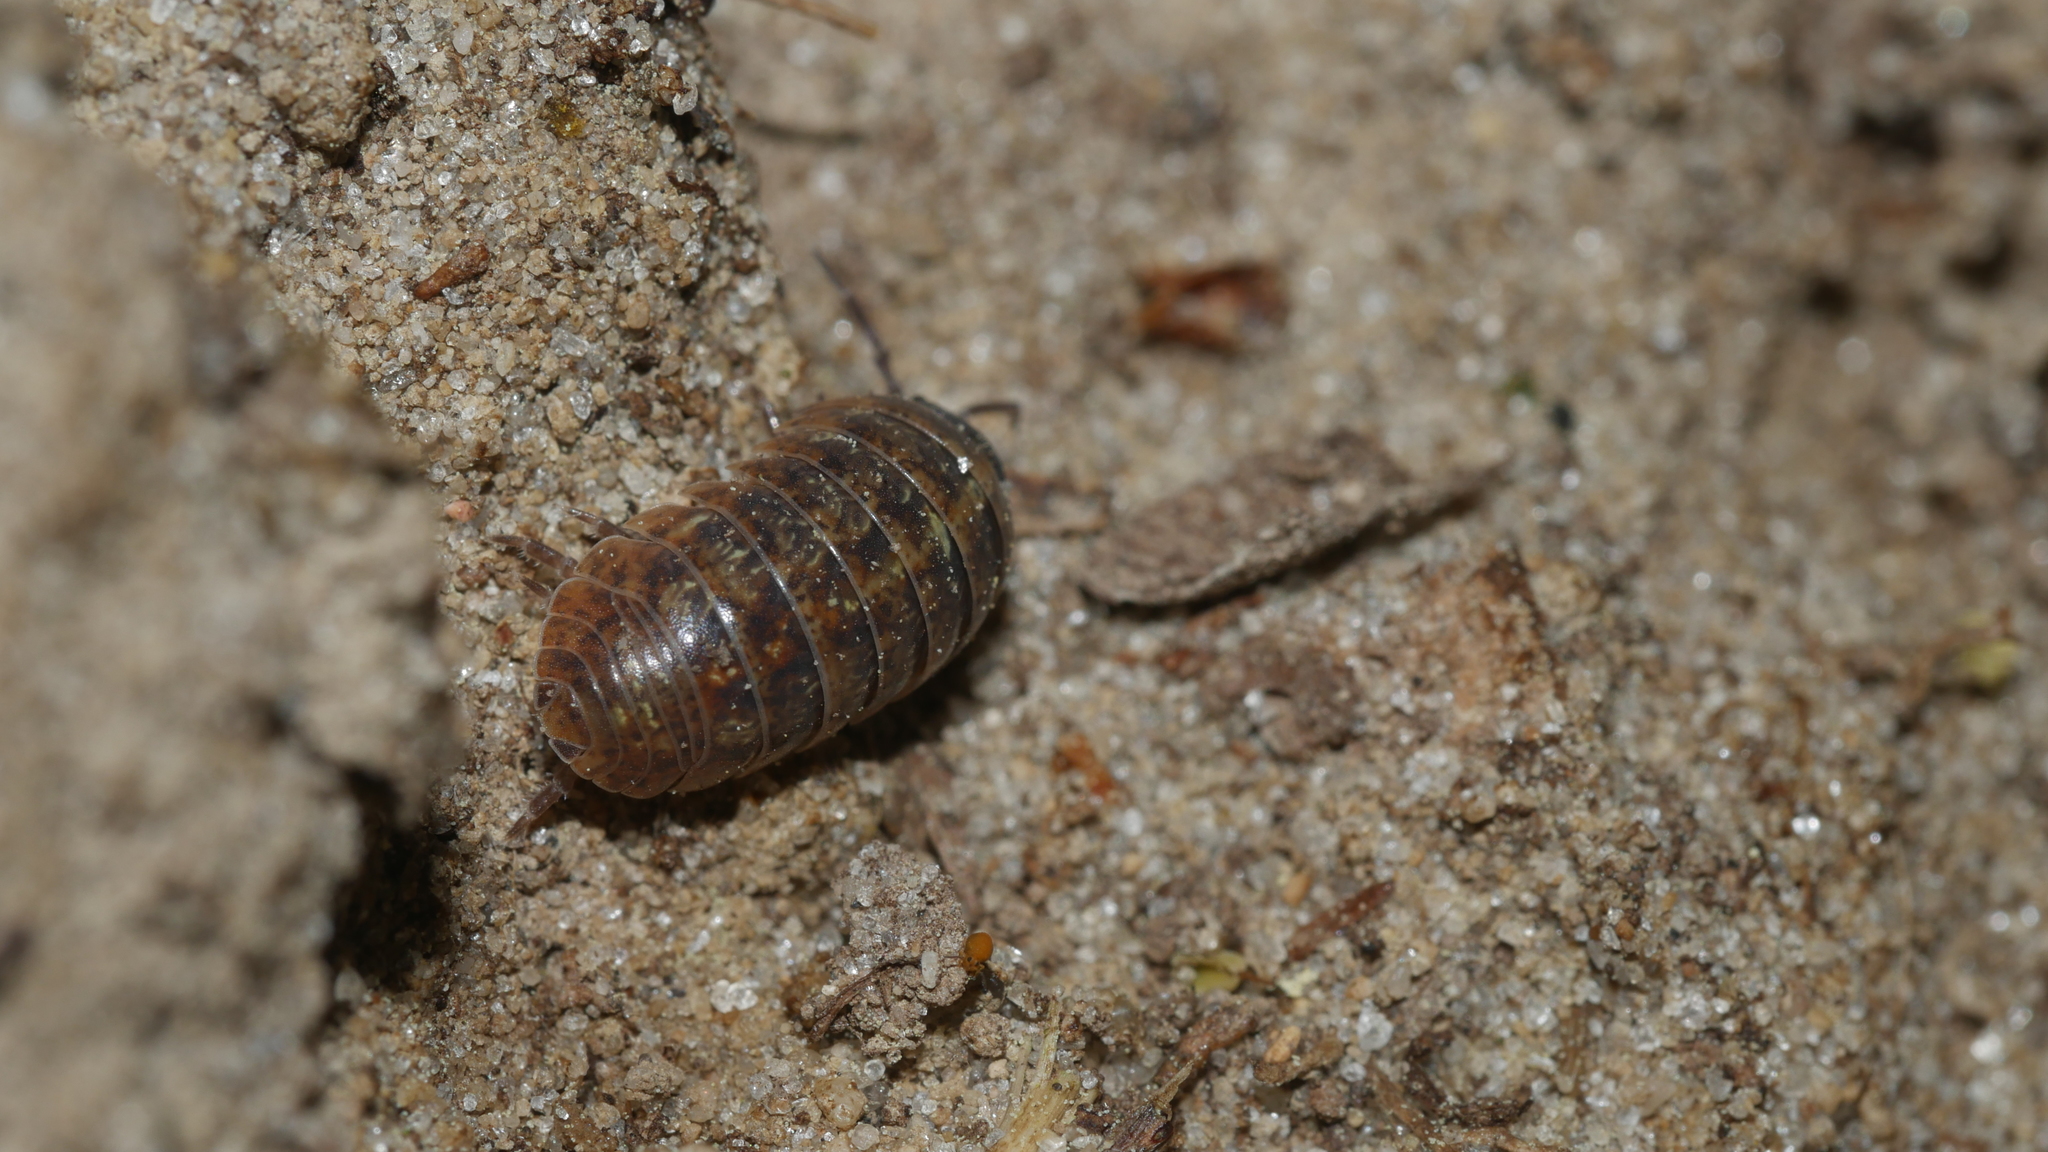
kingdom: Animalia
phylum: Arthropoda
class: Malacostraca
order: Isopoda
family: Armadillidiidae
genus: Armadillidium
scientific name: Armadillidium vulgare
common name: Common pill woodlouse
